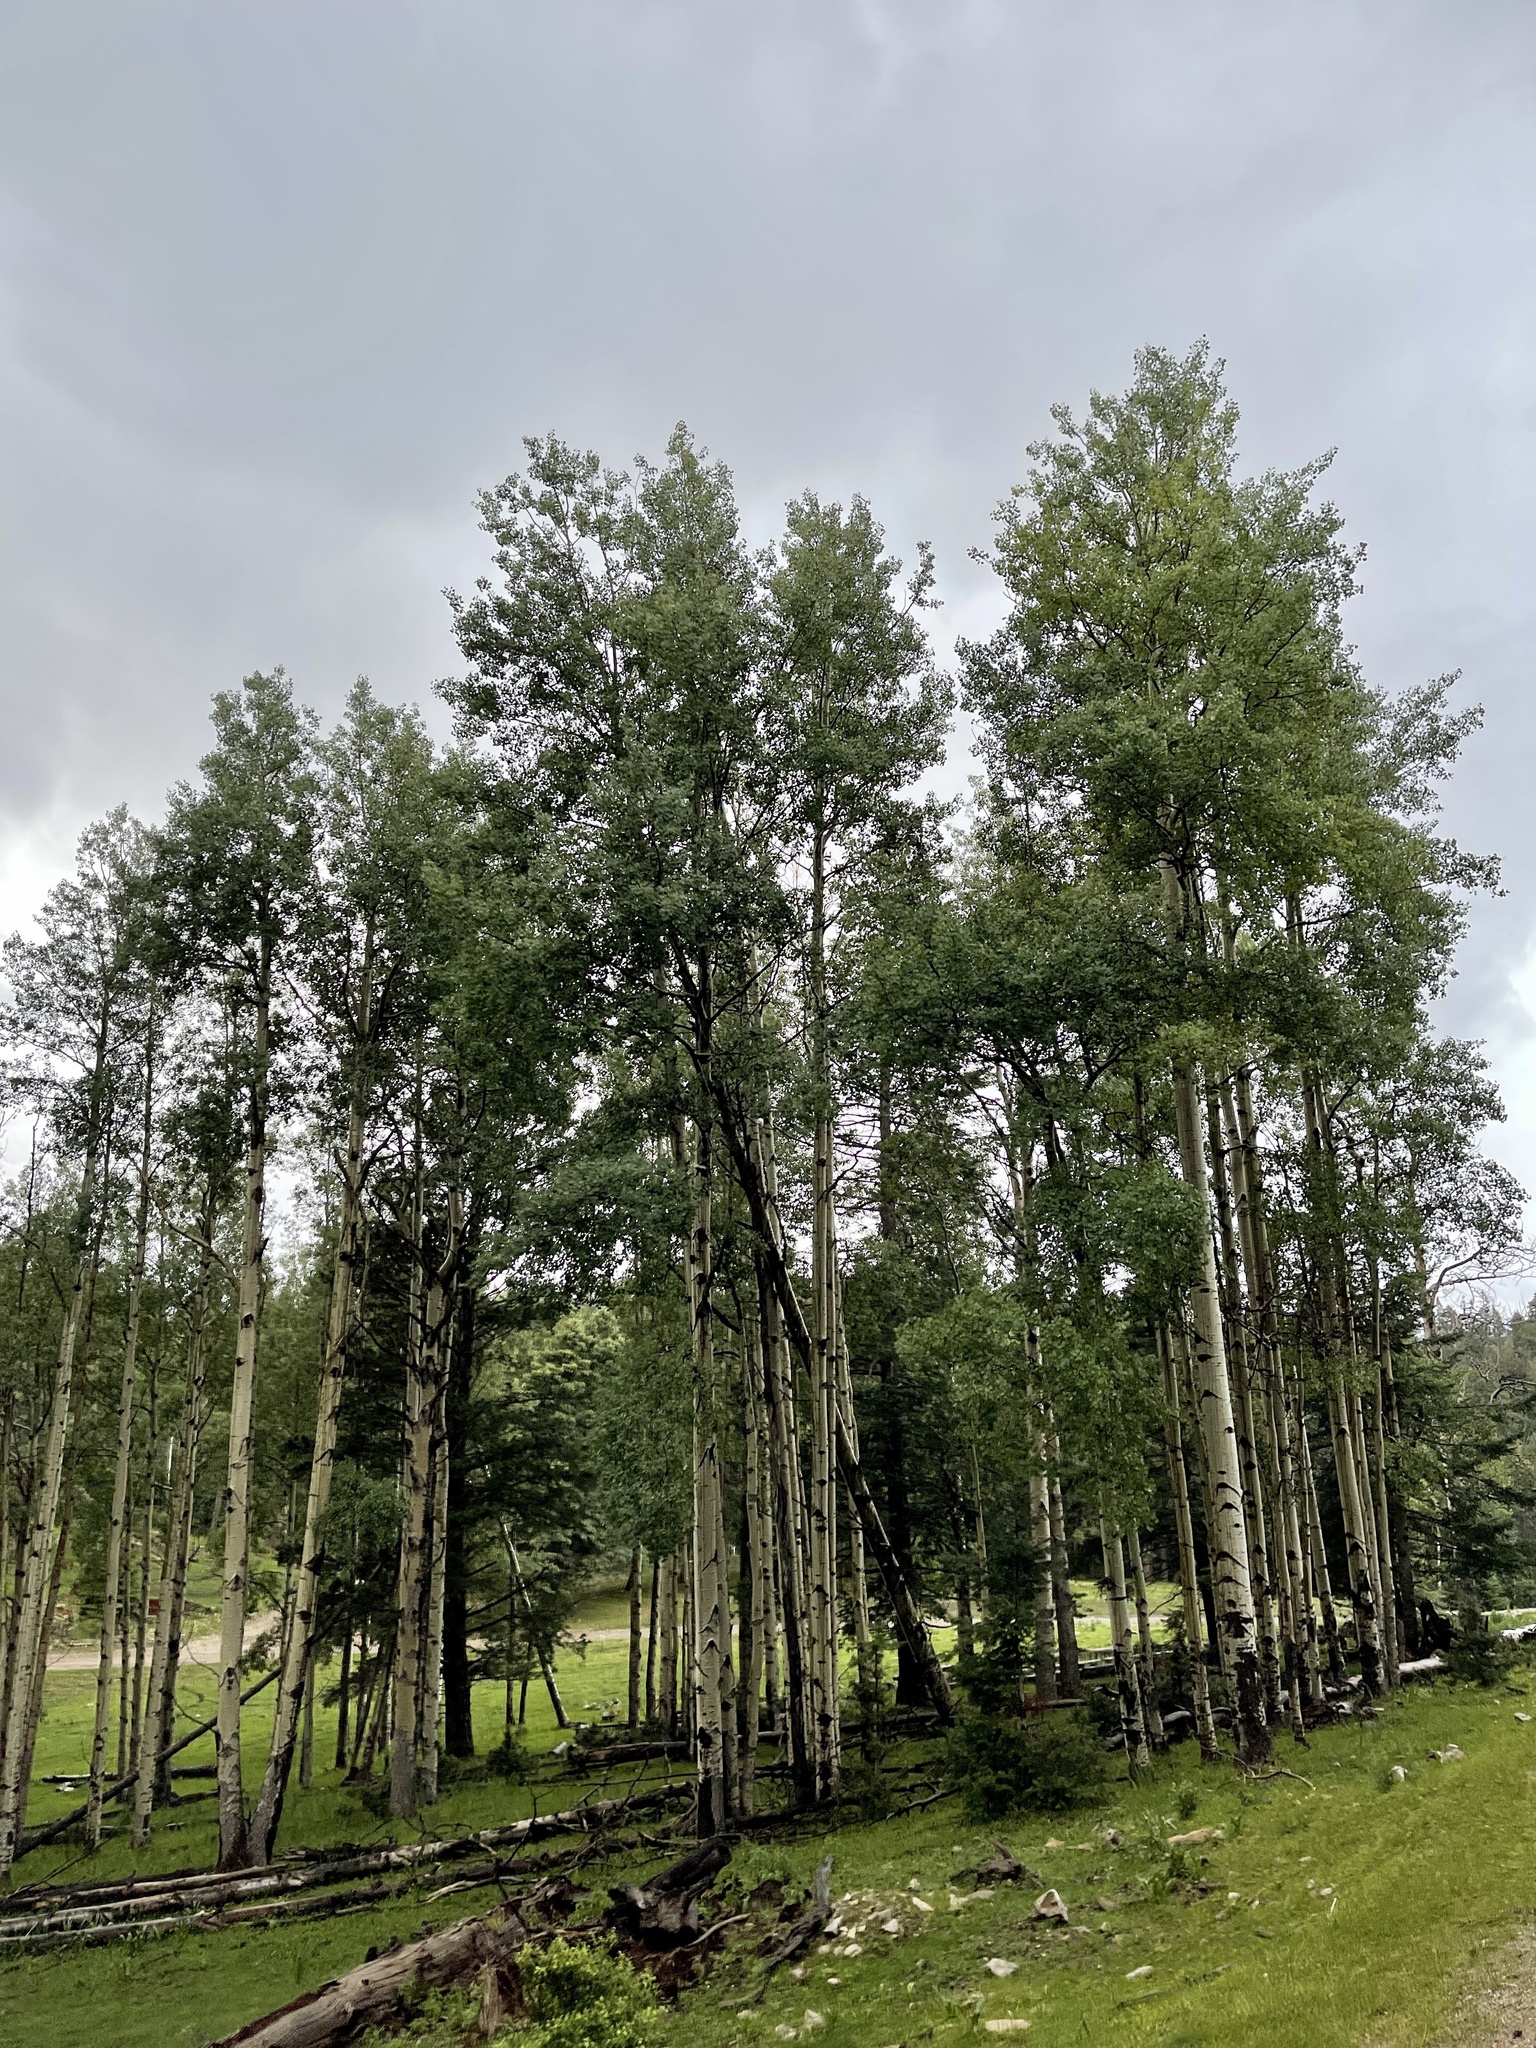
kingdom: Plantae
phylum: Tracheophyta
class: Magnoliopsida
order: Malpighiales
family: Salicaceae
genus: Populus
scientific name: Populus tremuloides
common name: Quaking aspen
